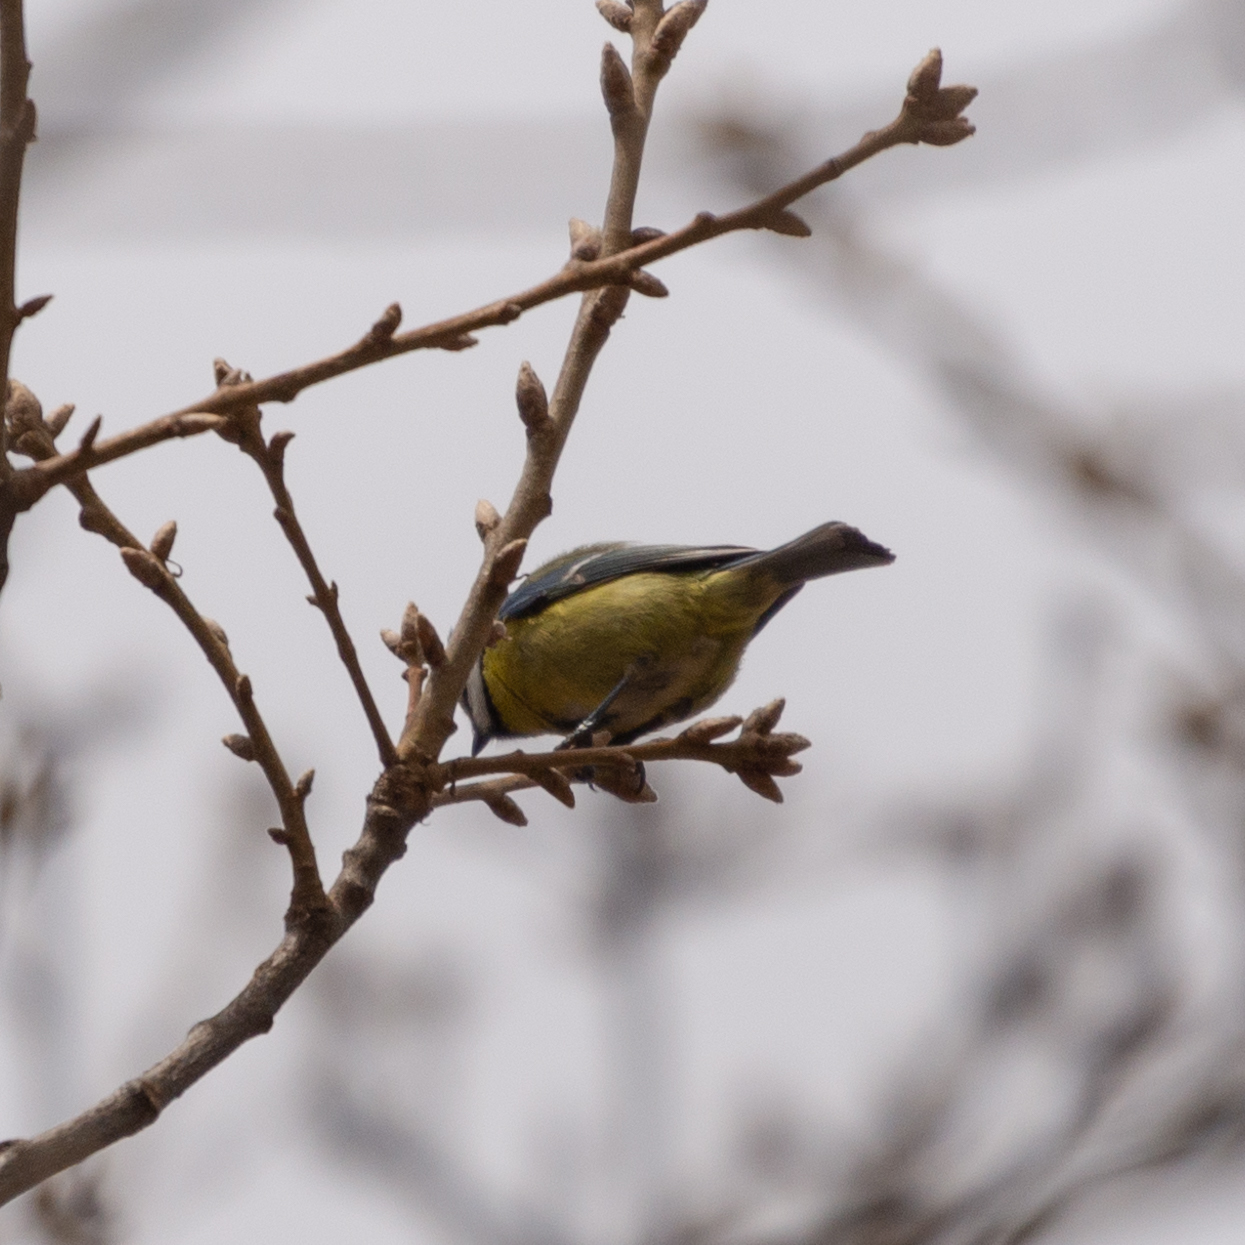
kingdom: Animalia
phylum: Chordata
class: Aves
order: Passeriformes
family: Paridae
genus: Cyanistes
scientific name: Cyanistes caeruleus
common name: Eurasian blue tit
